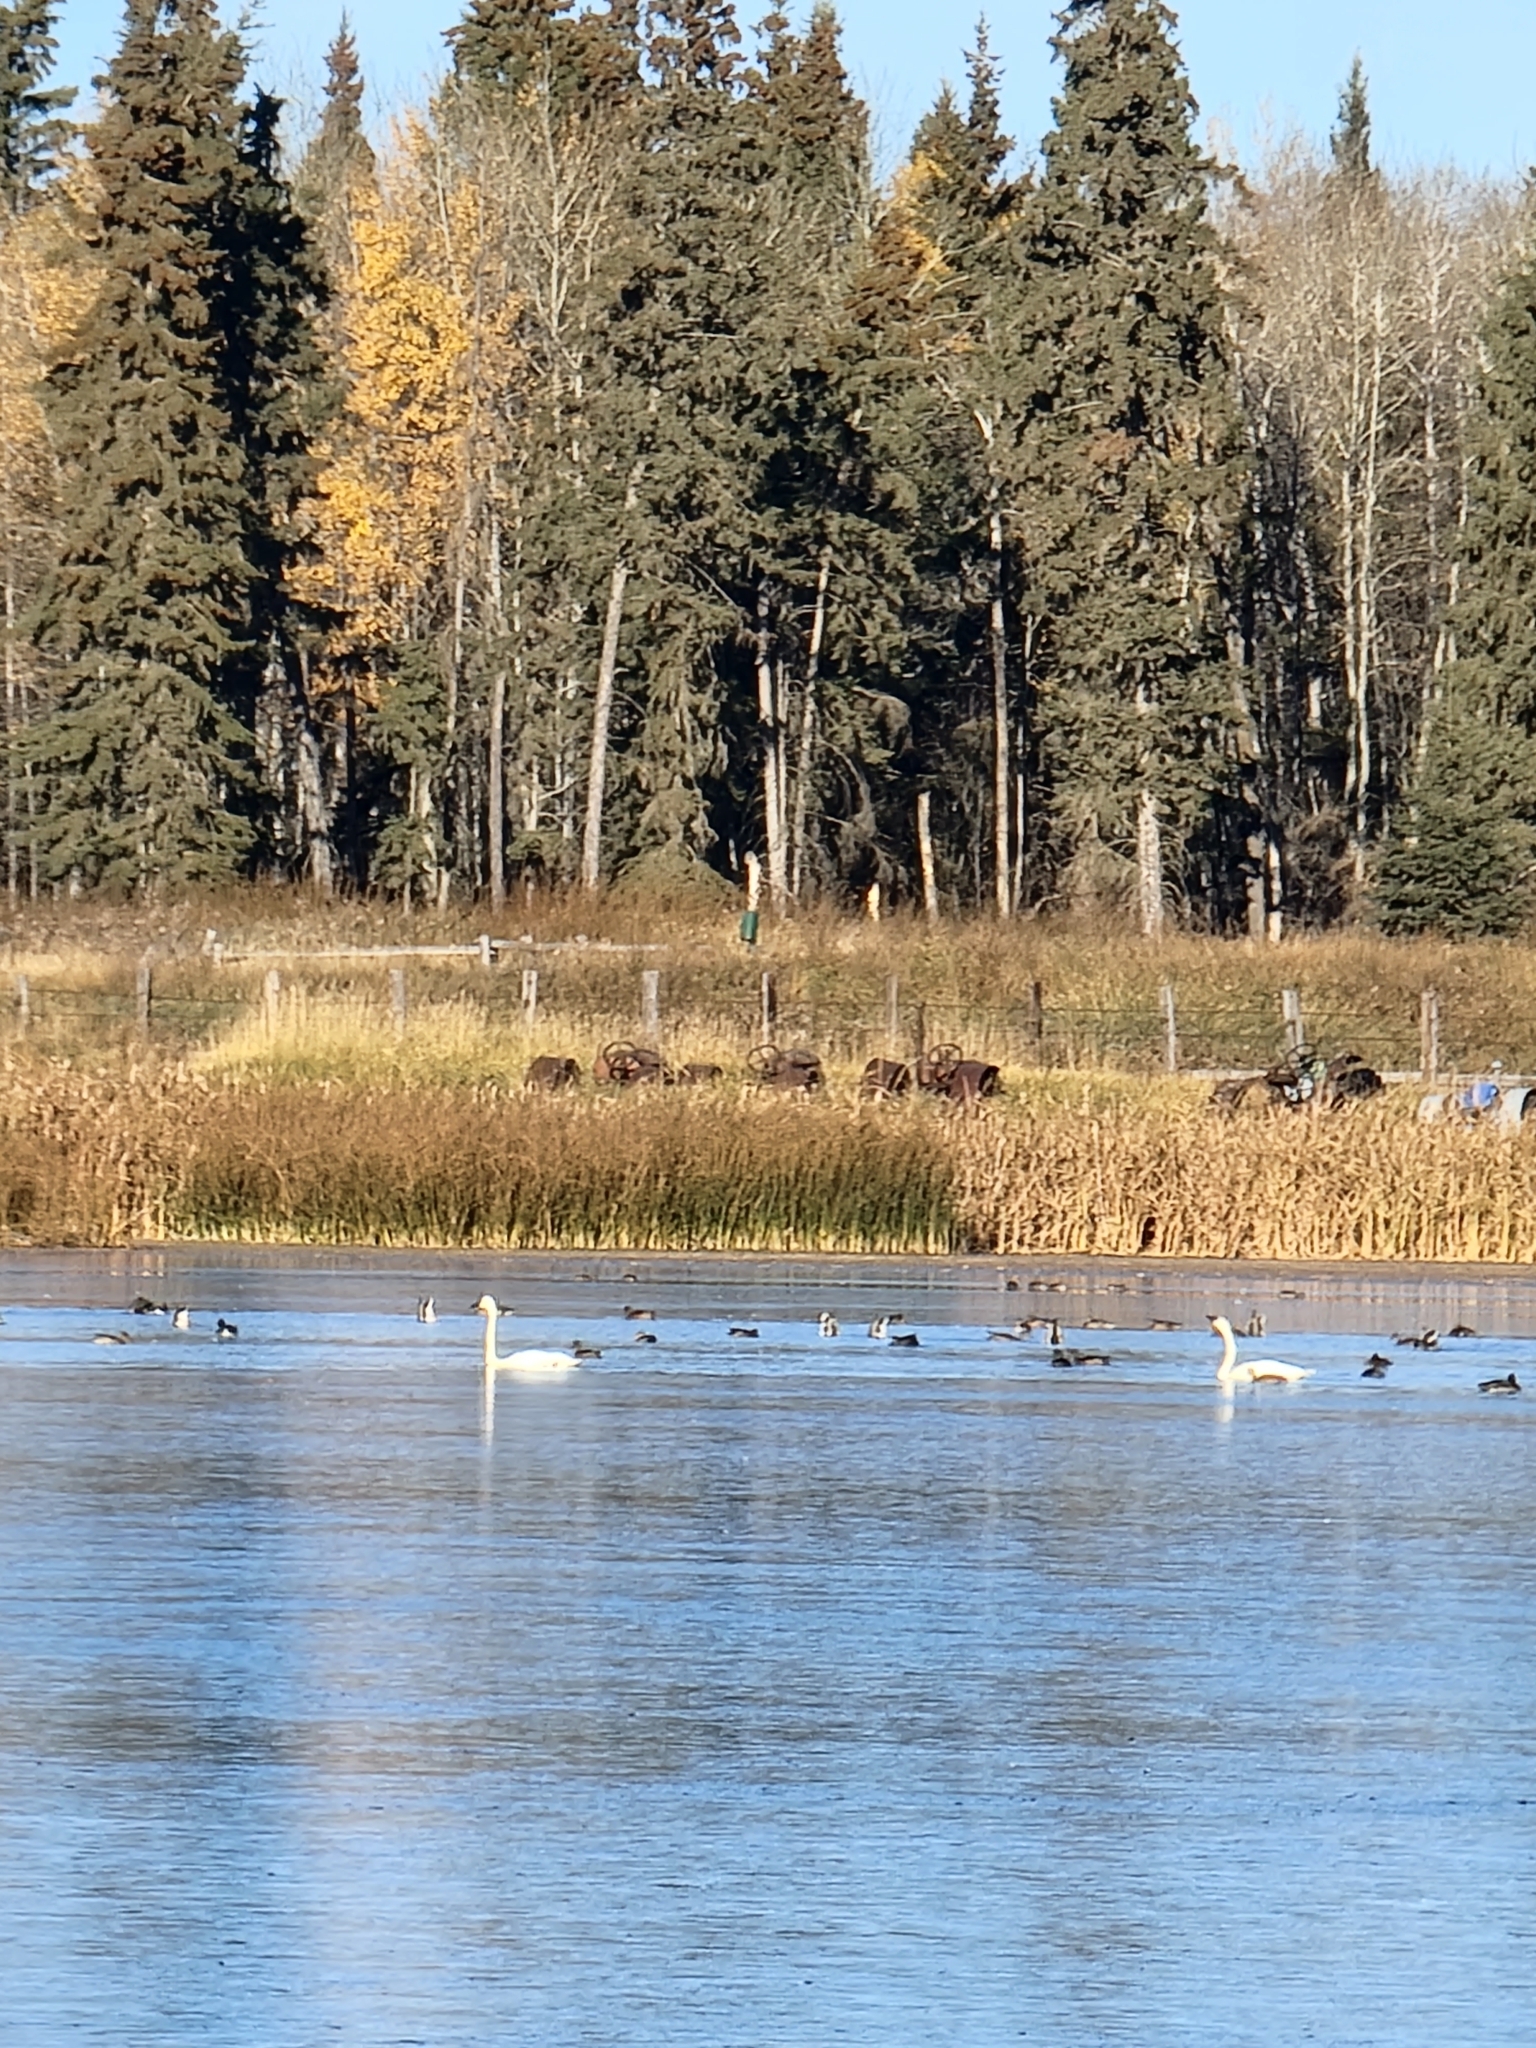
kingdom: Animalia
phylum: Chordata
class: Aves
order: Anseriformes
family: Anatidae
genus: Cygnus
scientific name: Cygnus buccinator
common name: Trumpeter swan
